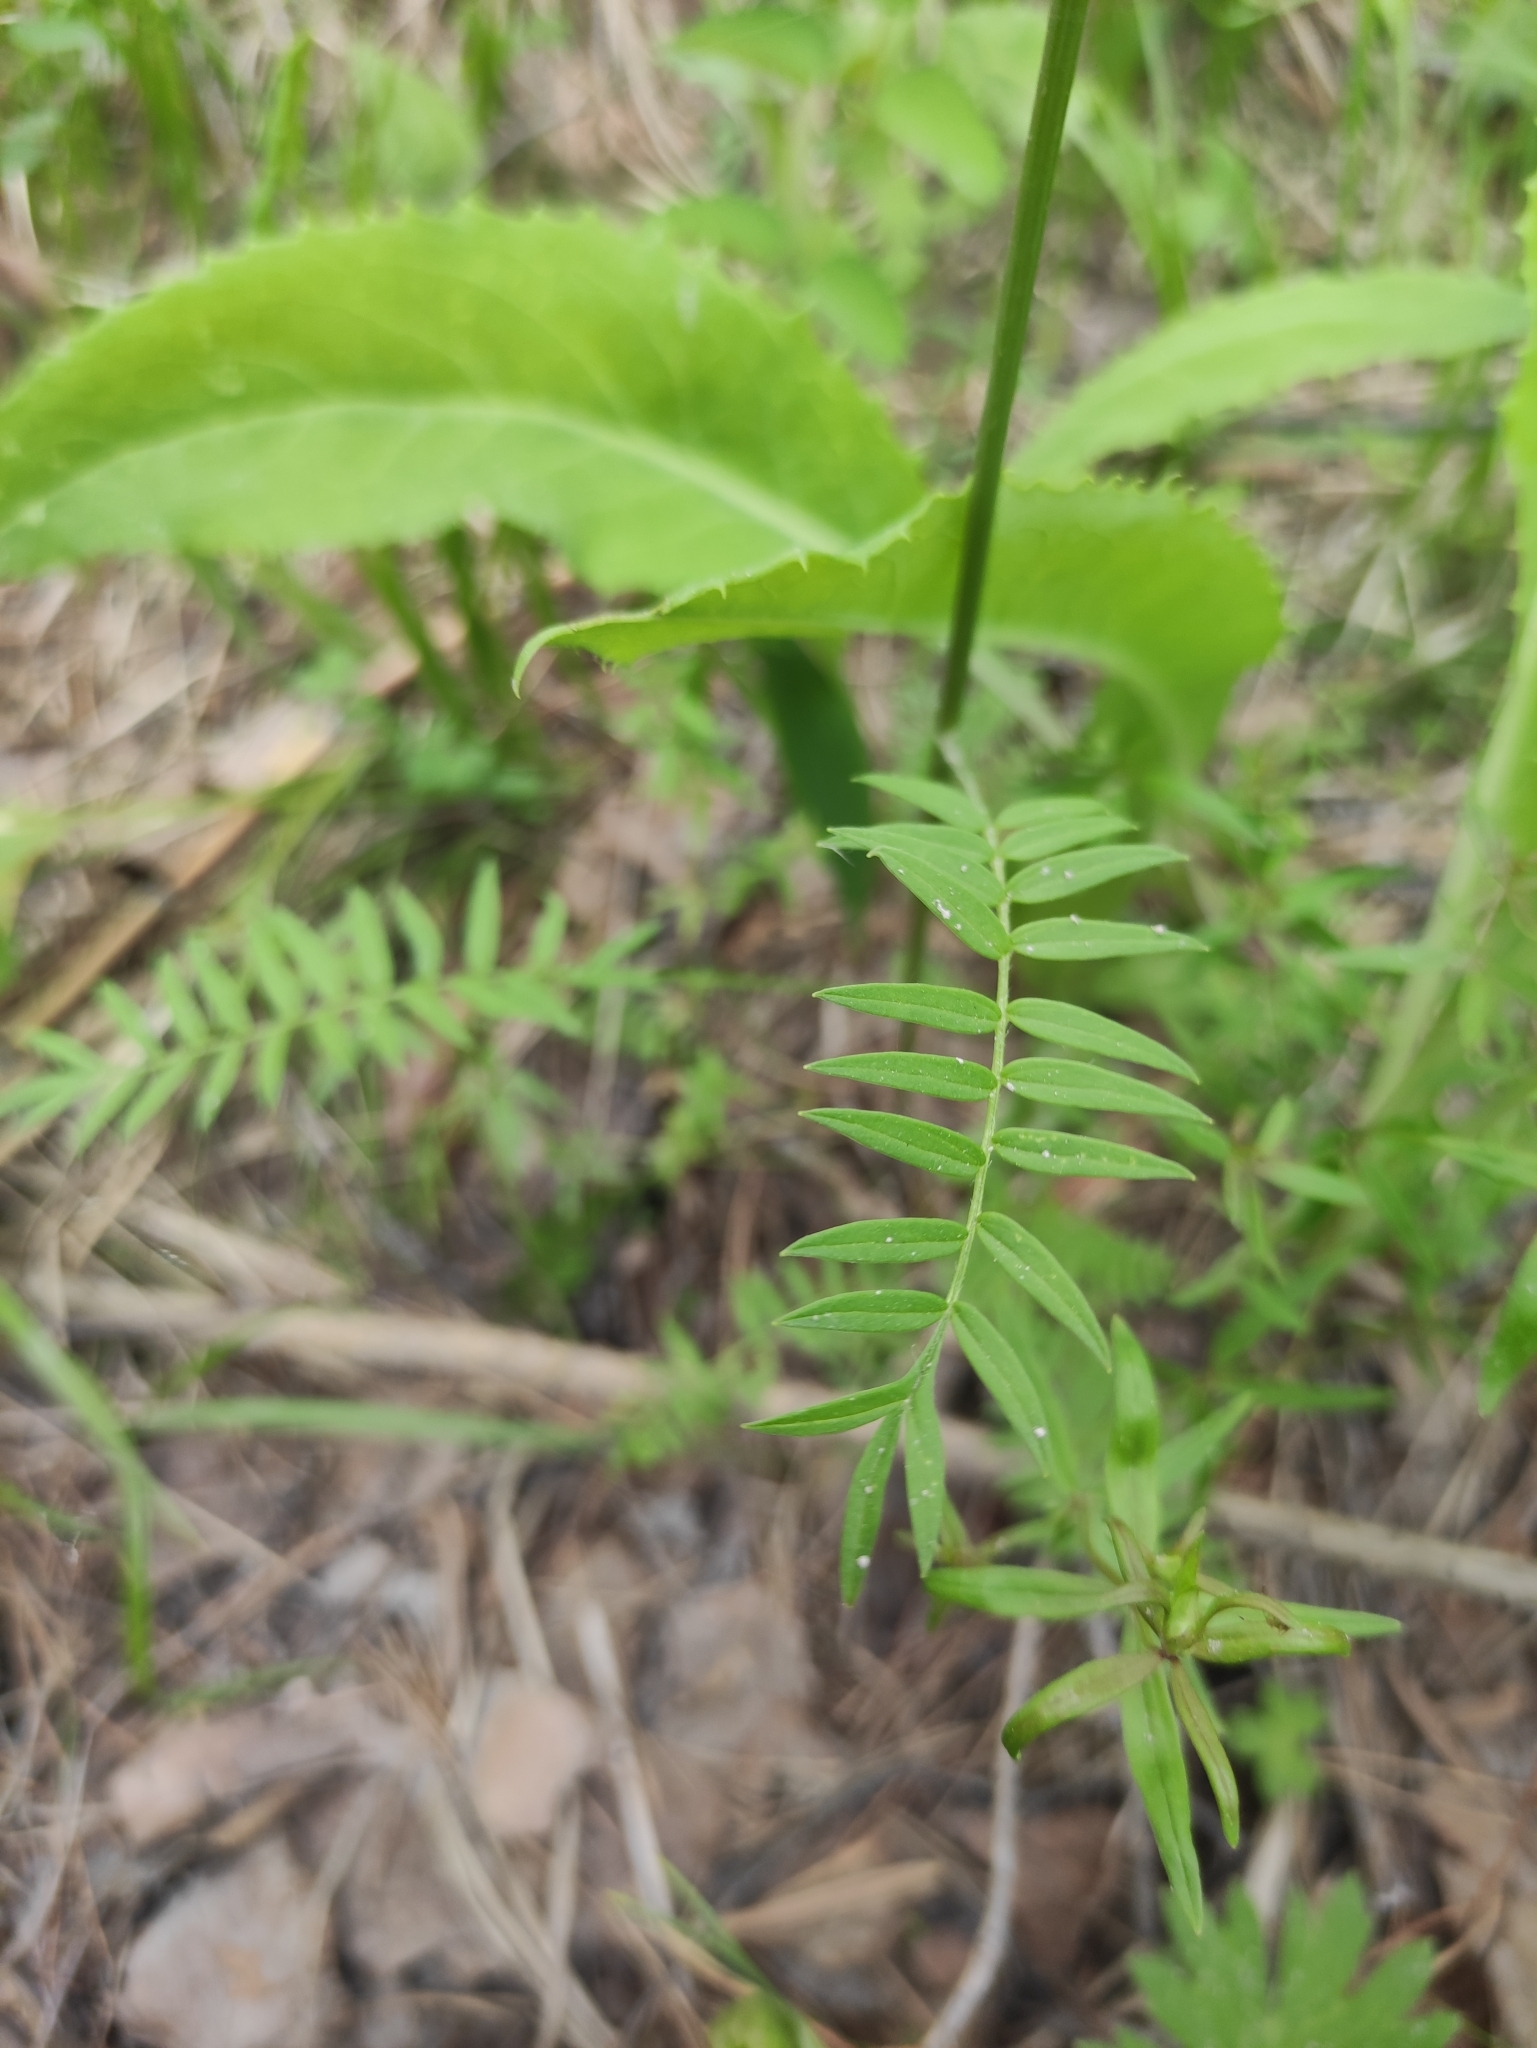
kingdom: Plantae
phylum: Tracheophyta
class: Magnoliopsida
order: Ericales
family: Polemoniaceae
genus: Polemonium
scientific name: Polemonium acutiflorum
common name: Tall jacob's-ladder
